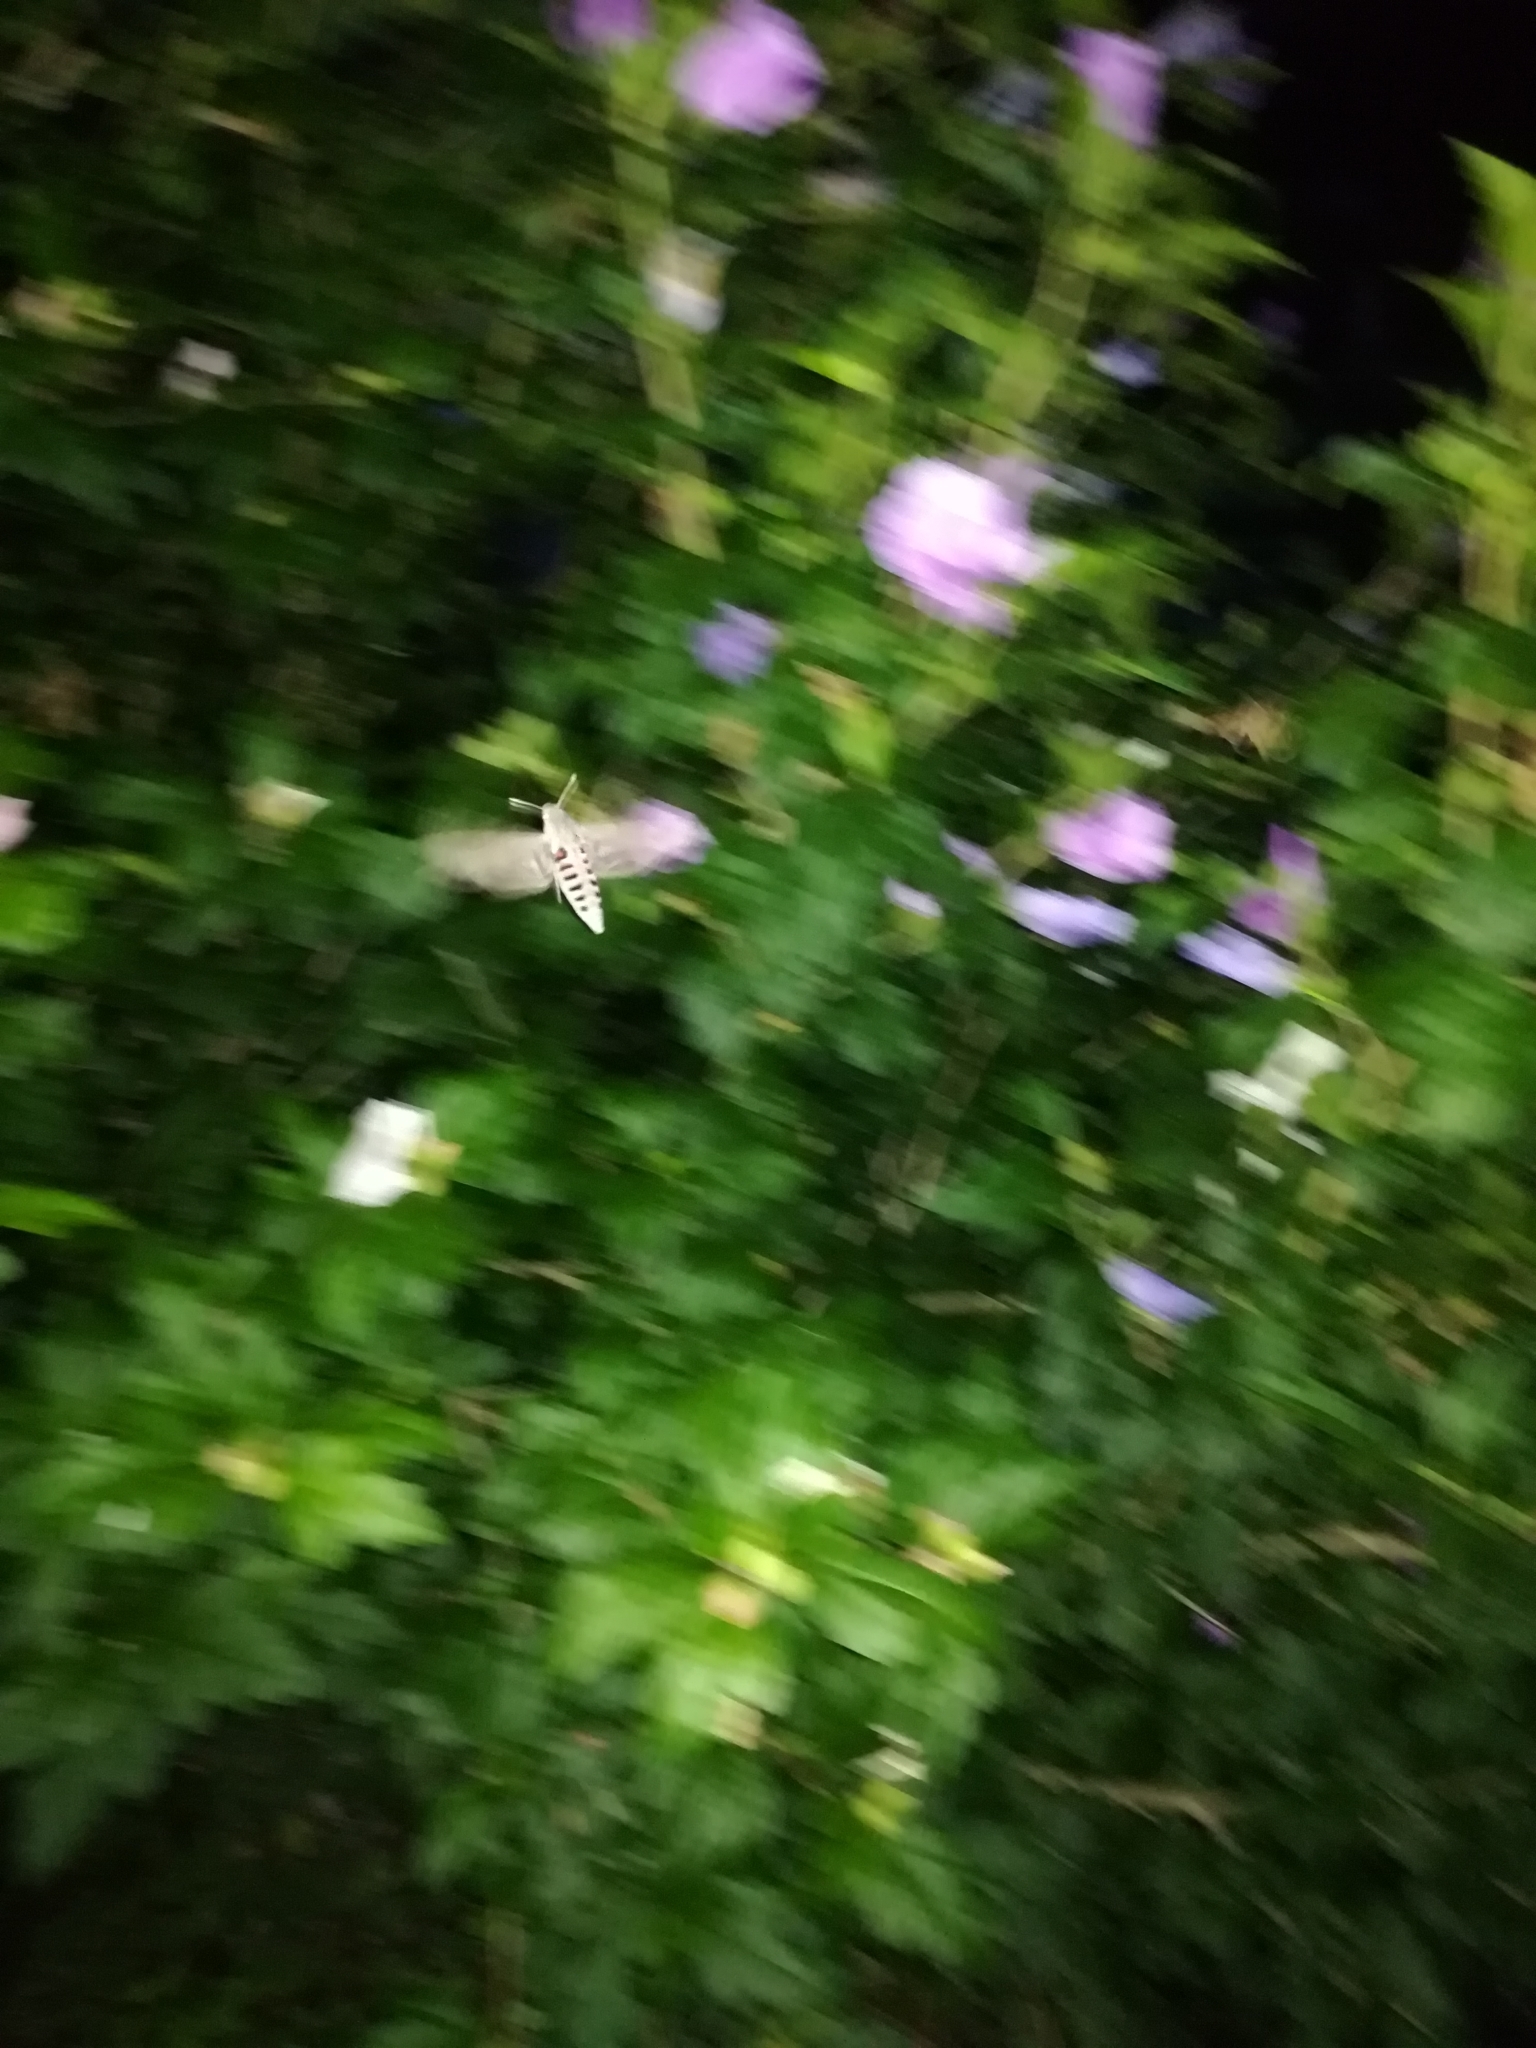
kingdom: Animalia
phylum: Arthropoda
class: Insecta
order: Lepidoptera
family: Sphingidae
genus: Agrius
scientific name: Agrius convolvuli
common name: Convolvulus hawkmoth
